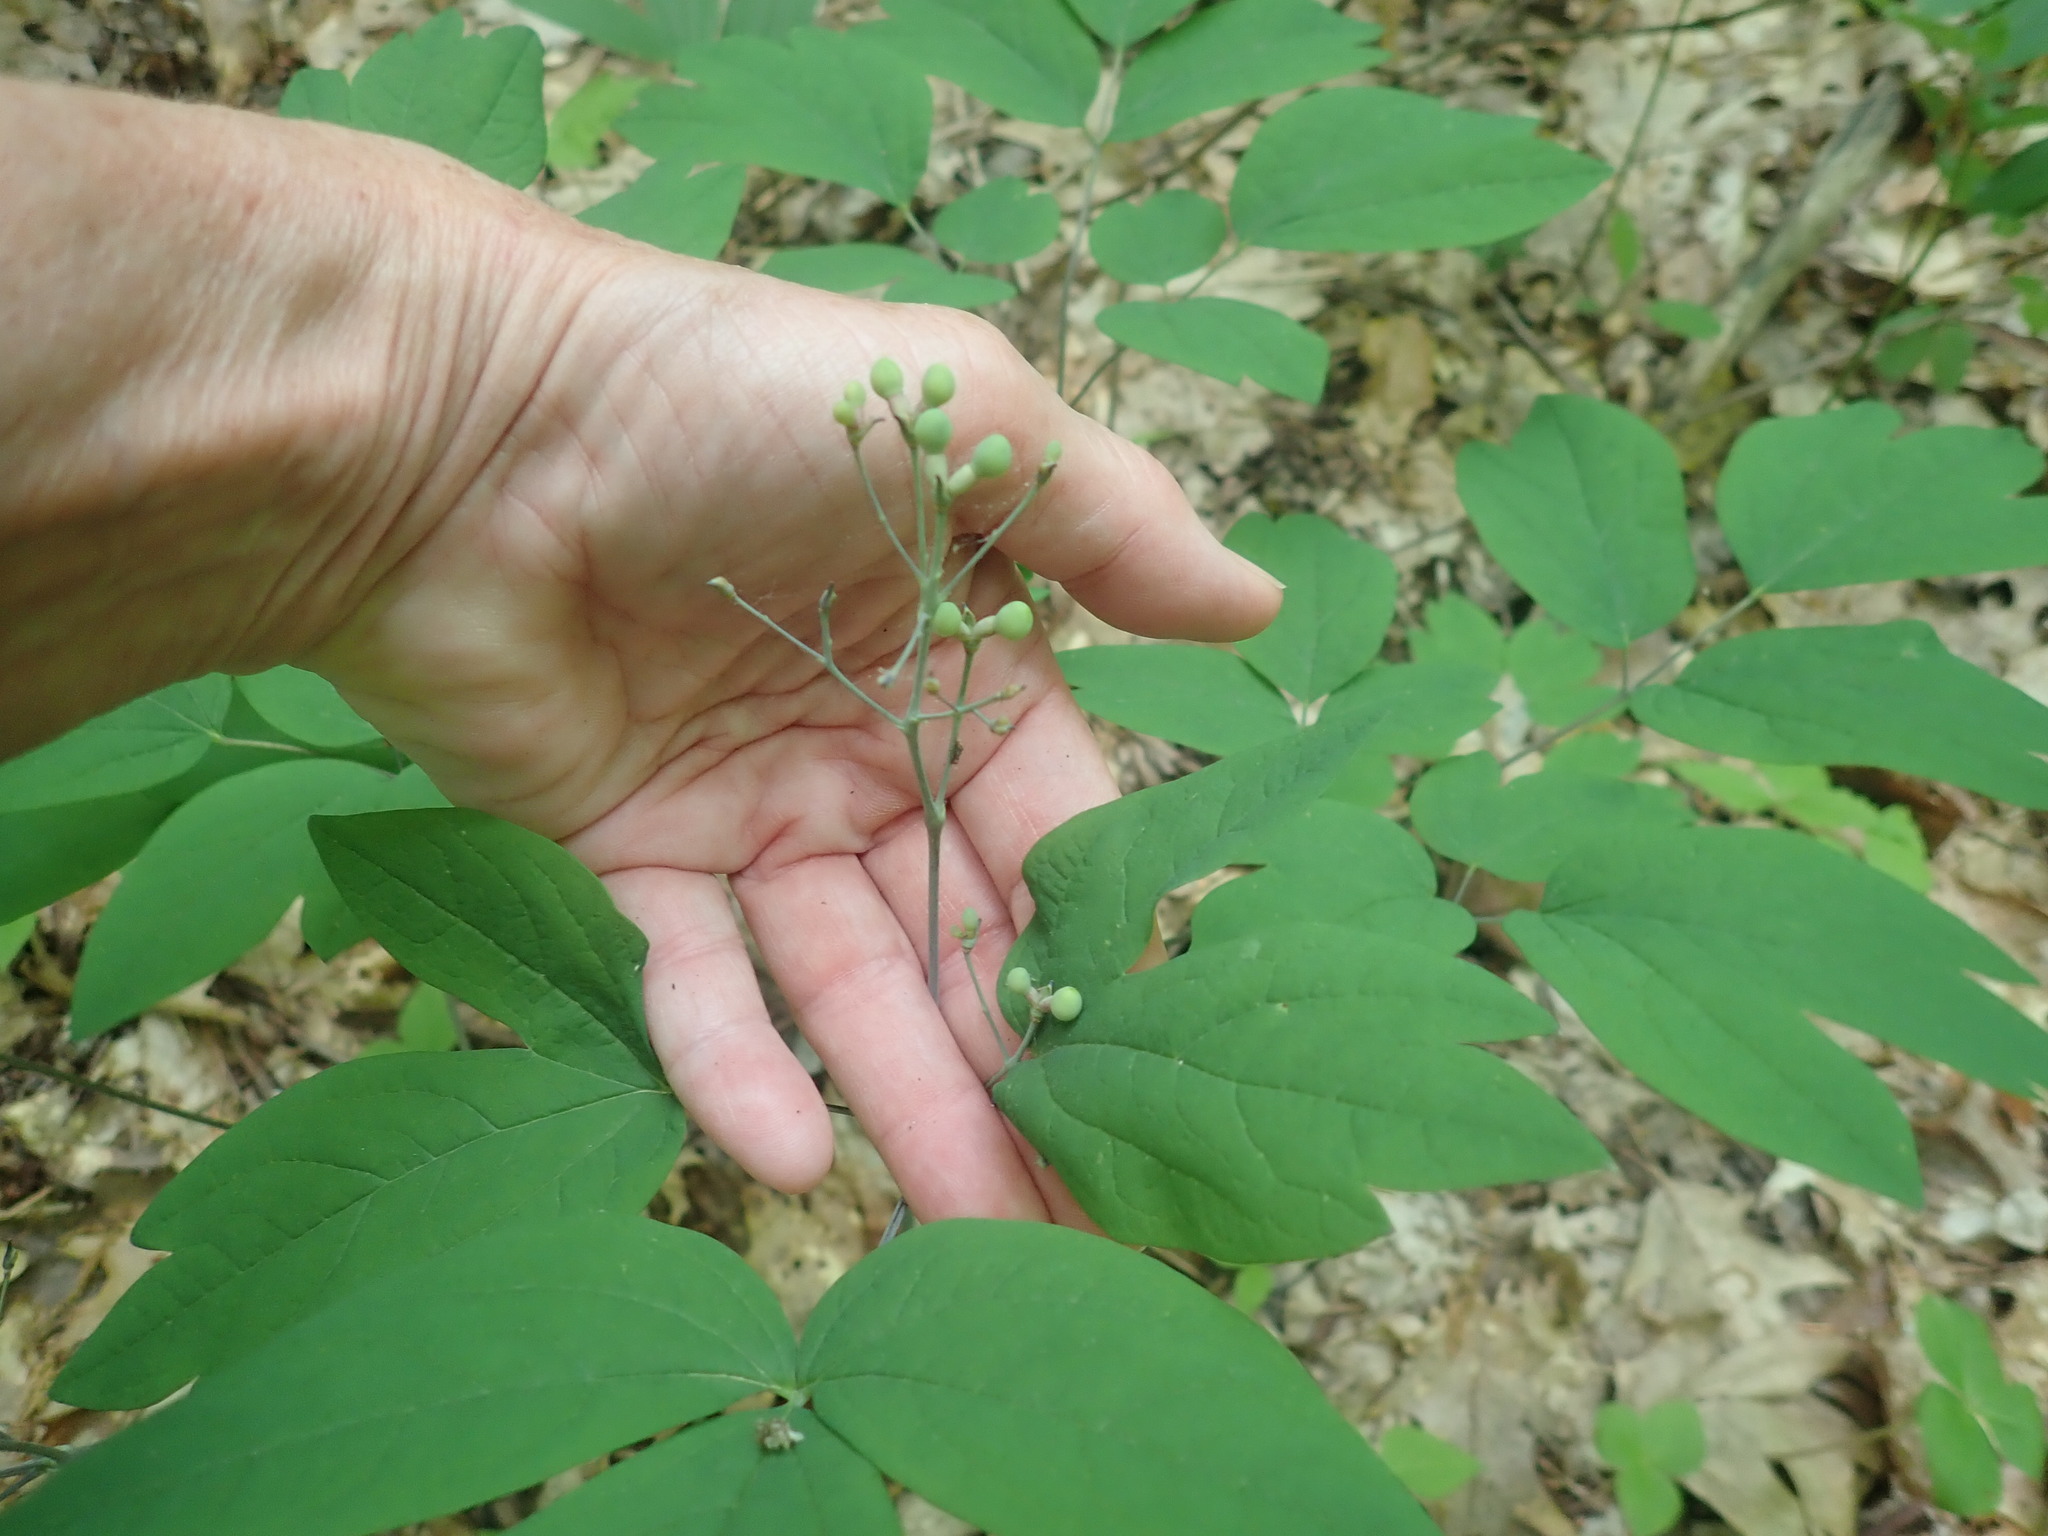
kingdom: Plantae
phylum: Tracheophyta
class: Magnoliopsida
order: Ranunculales
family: Berberidaceae
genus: Caulophyllum
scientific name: Caulophyllum
